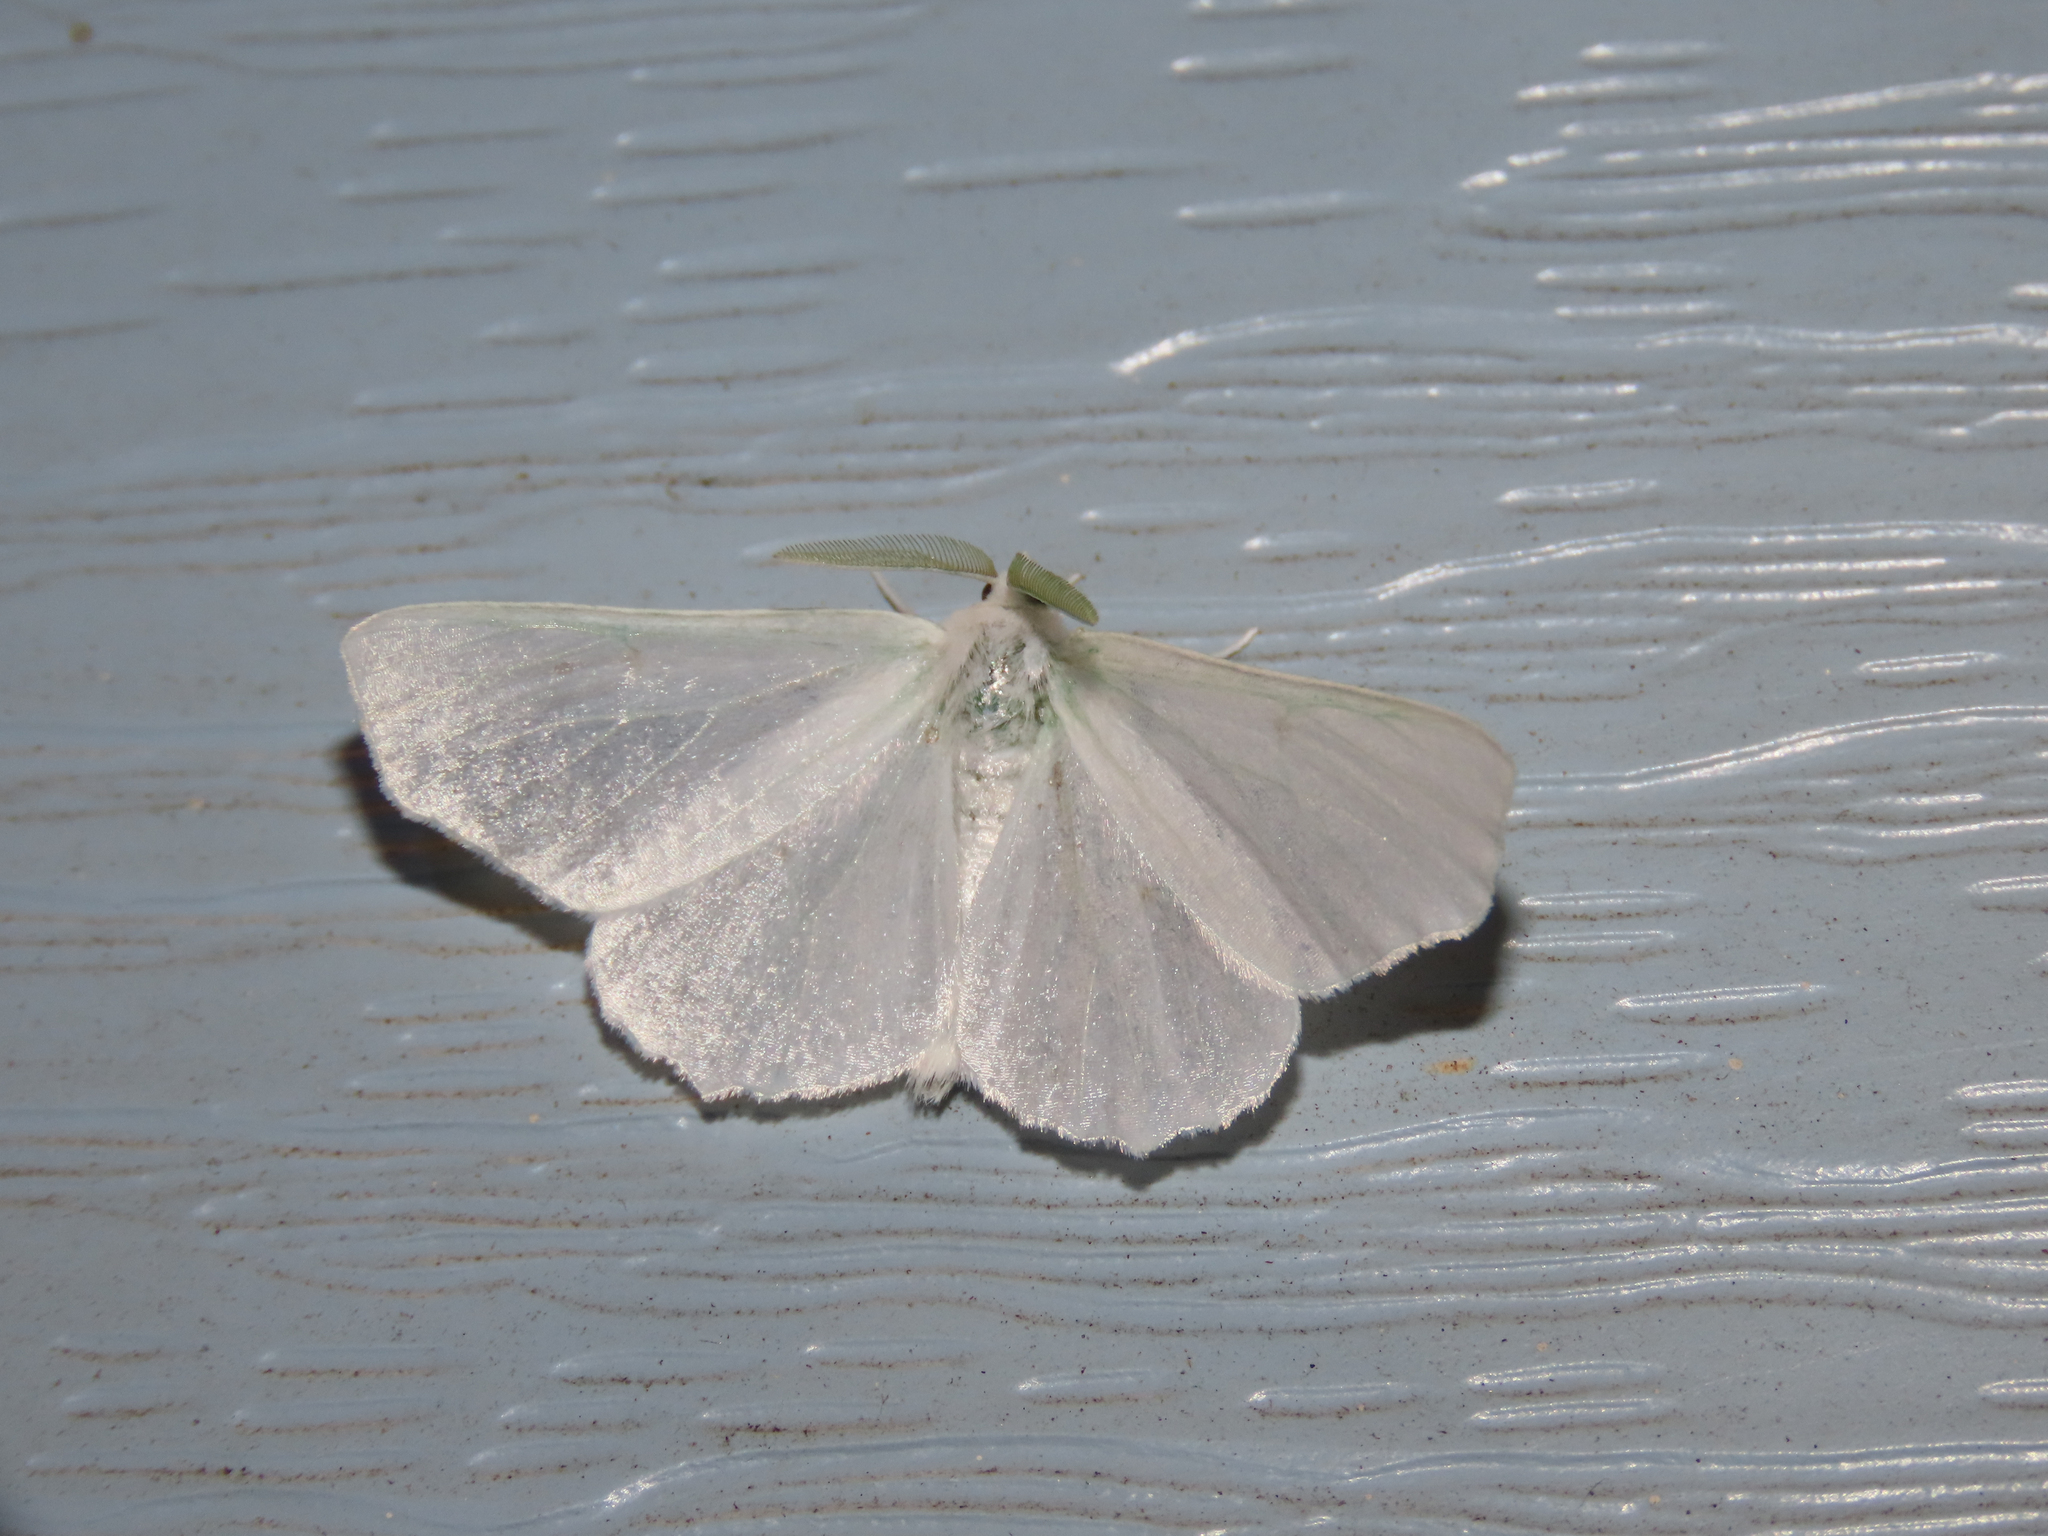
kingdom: Animalia
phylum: Arthropoda
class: Insecta
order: Lepidoptera
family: Geometridae
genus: Ennomos
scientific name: Ennomos subsignaria
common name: Elm spanworm
